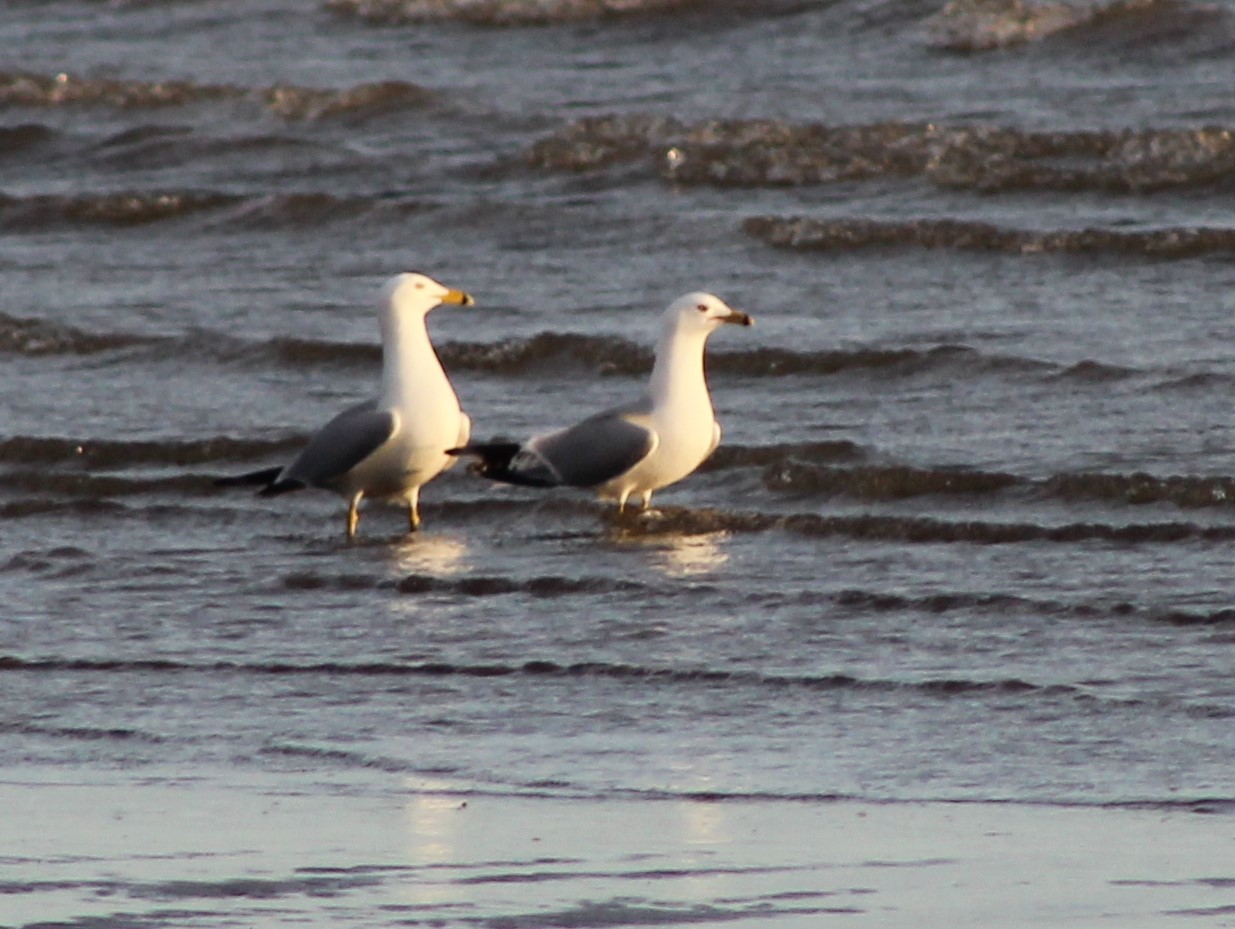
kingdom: Animalia
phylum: Chordata
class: Aves
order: Charadriiformes
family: Laridae
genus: Larus
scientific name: Larus delawarensis
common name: Ring-billed gull
